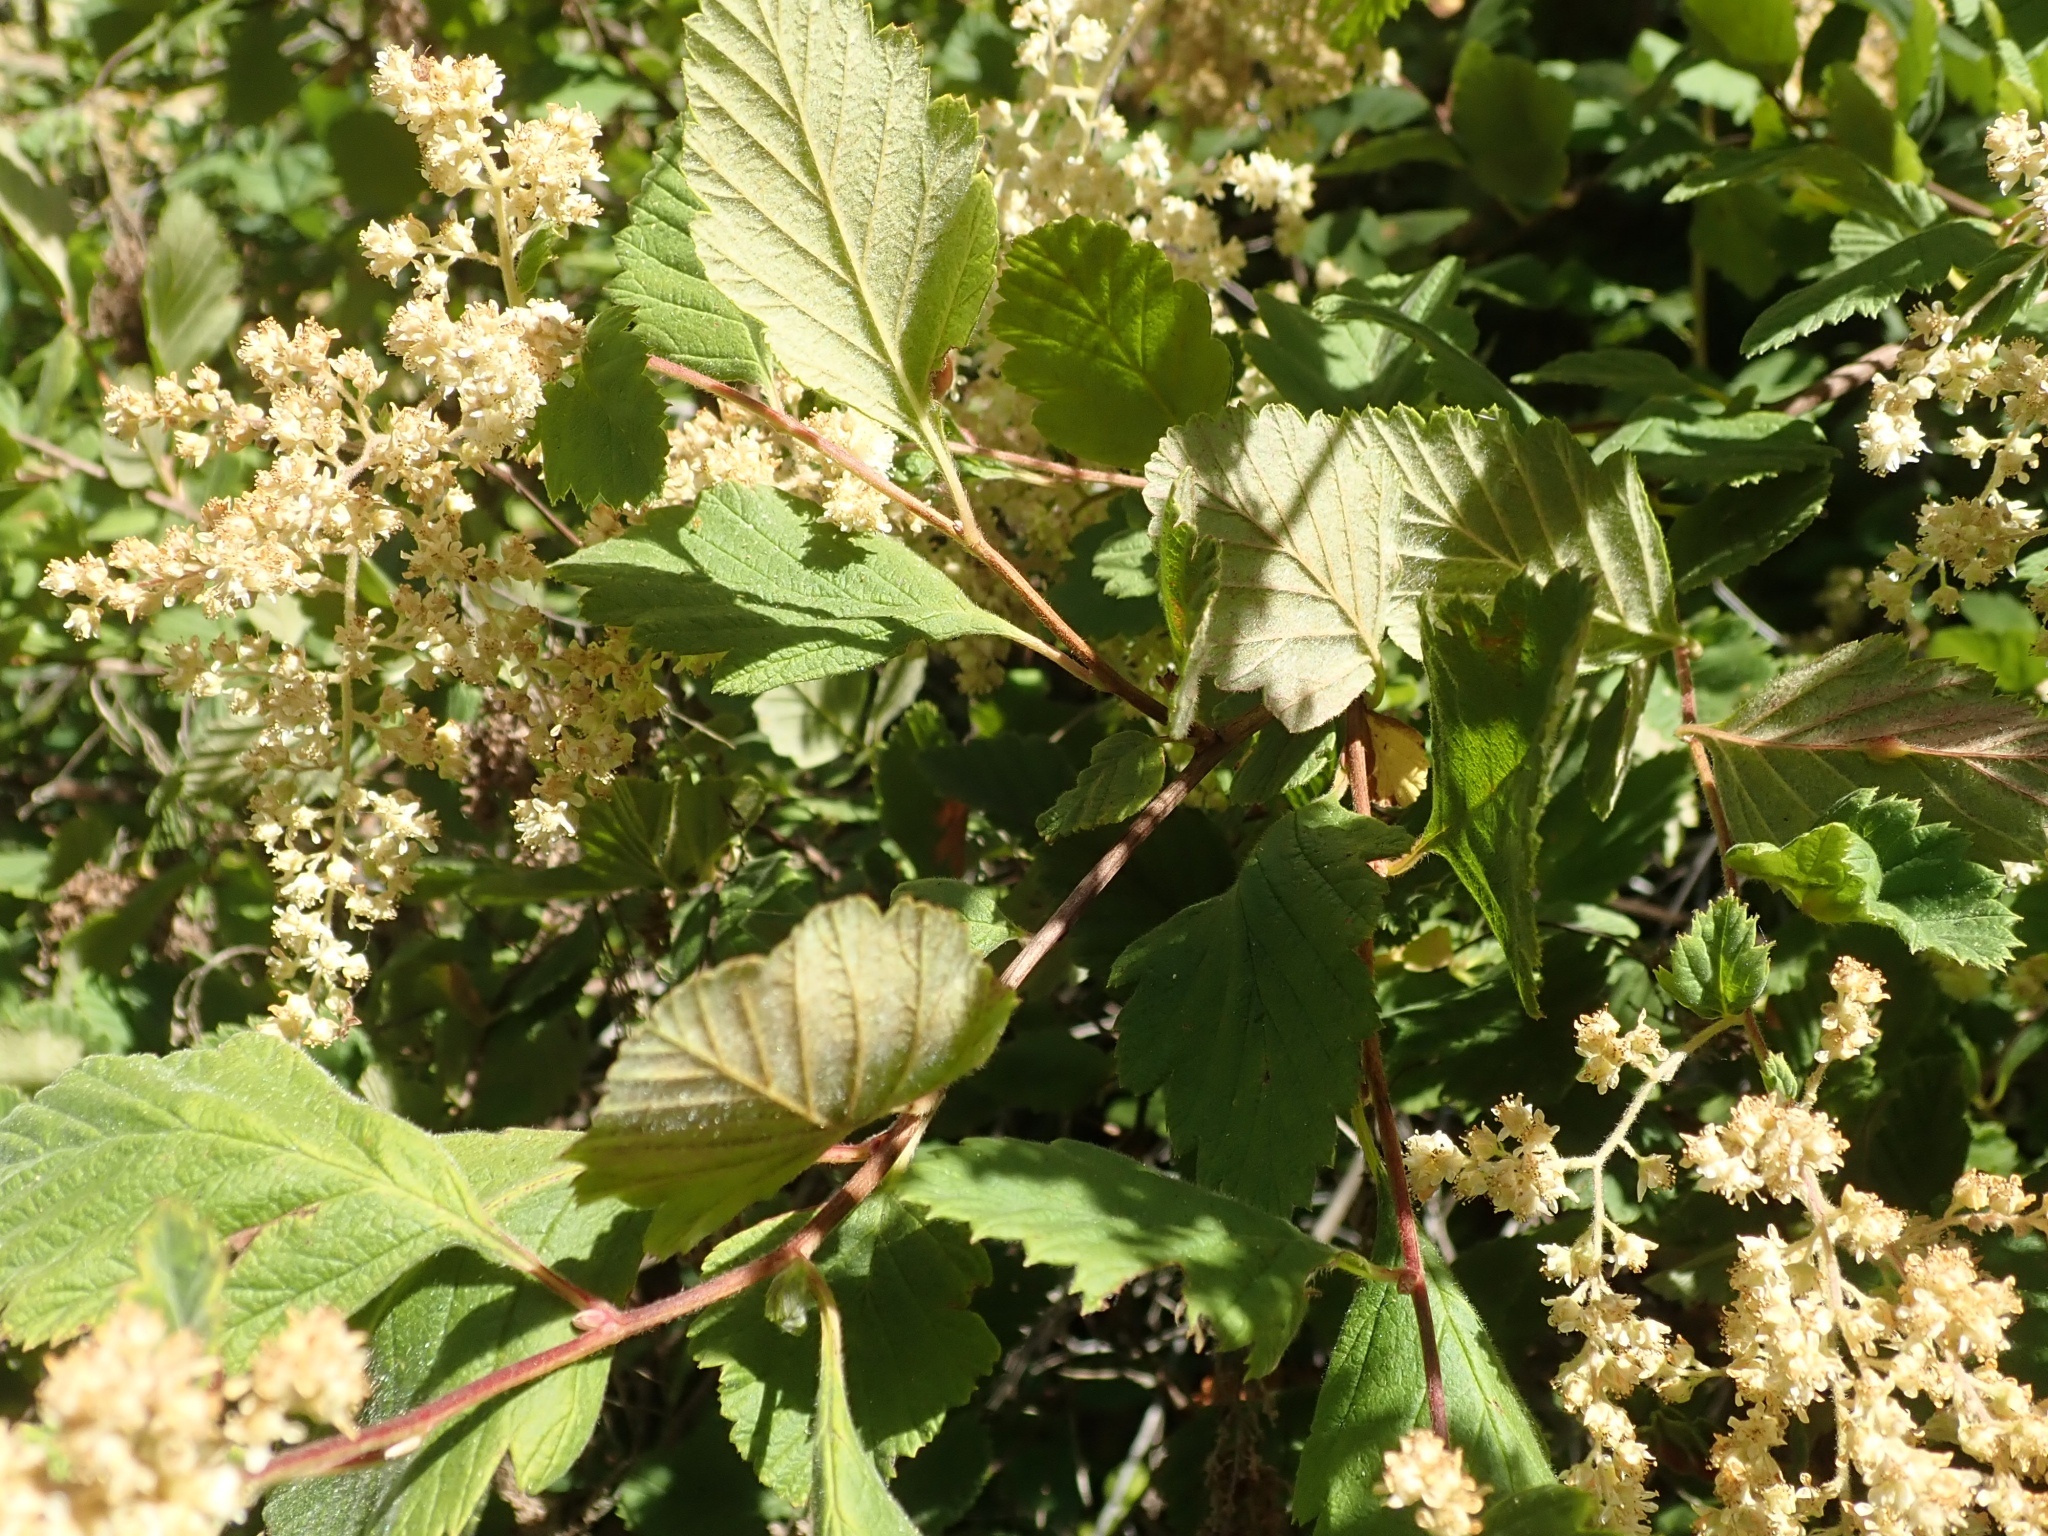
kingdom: Plantae
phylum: Tracheophyta
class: Magnoliopsida
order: Rosales
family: Rosaceae
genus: Holodiscus
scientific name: Holodiscus discolor
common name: Oceanspray
